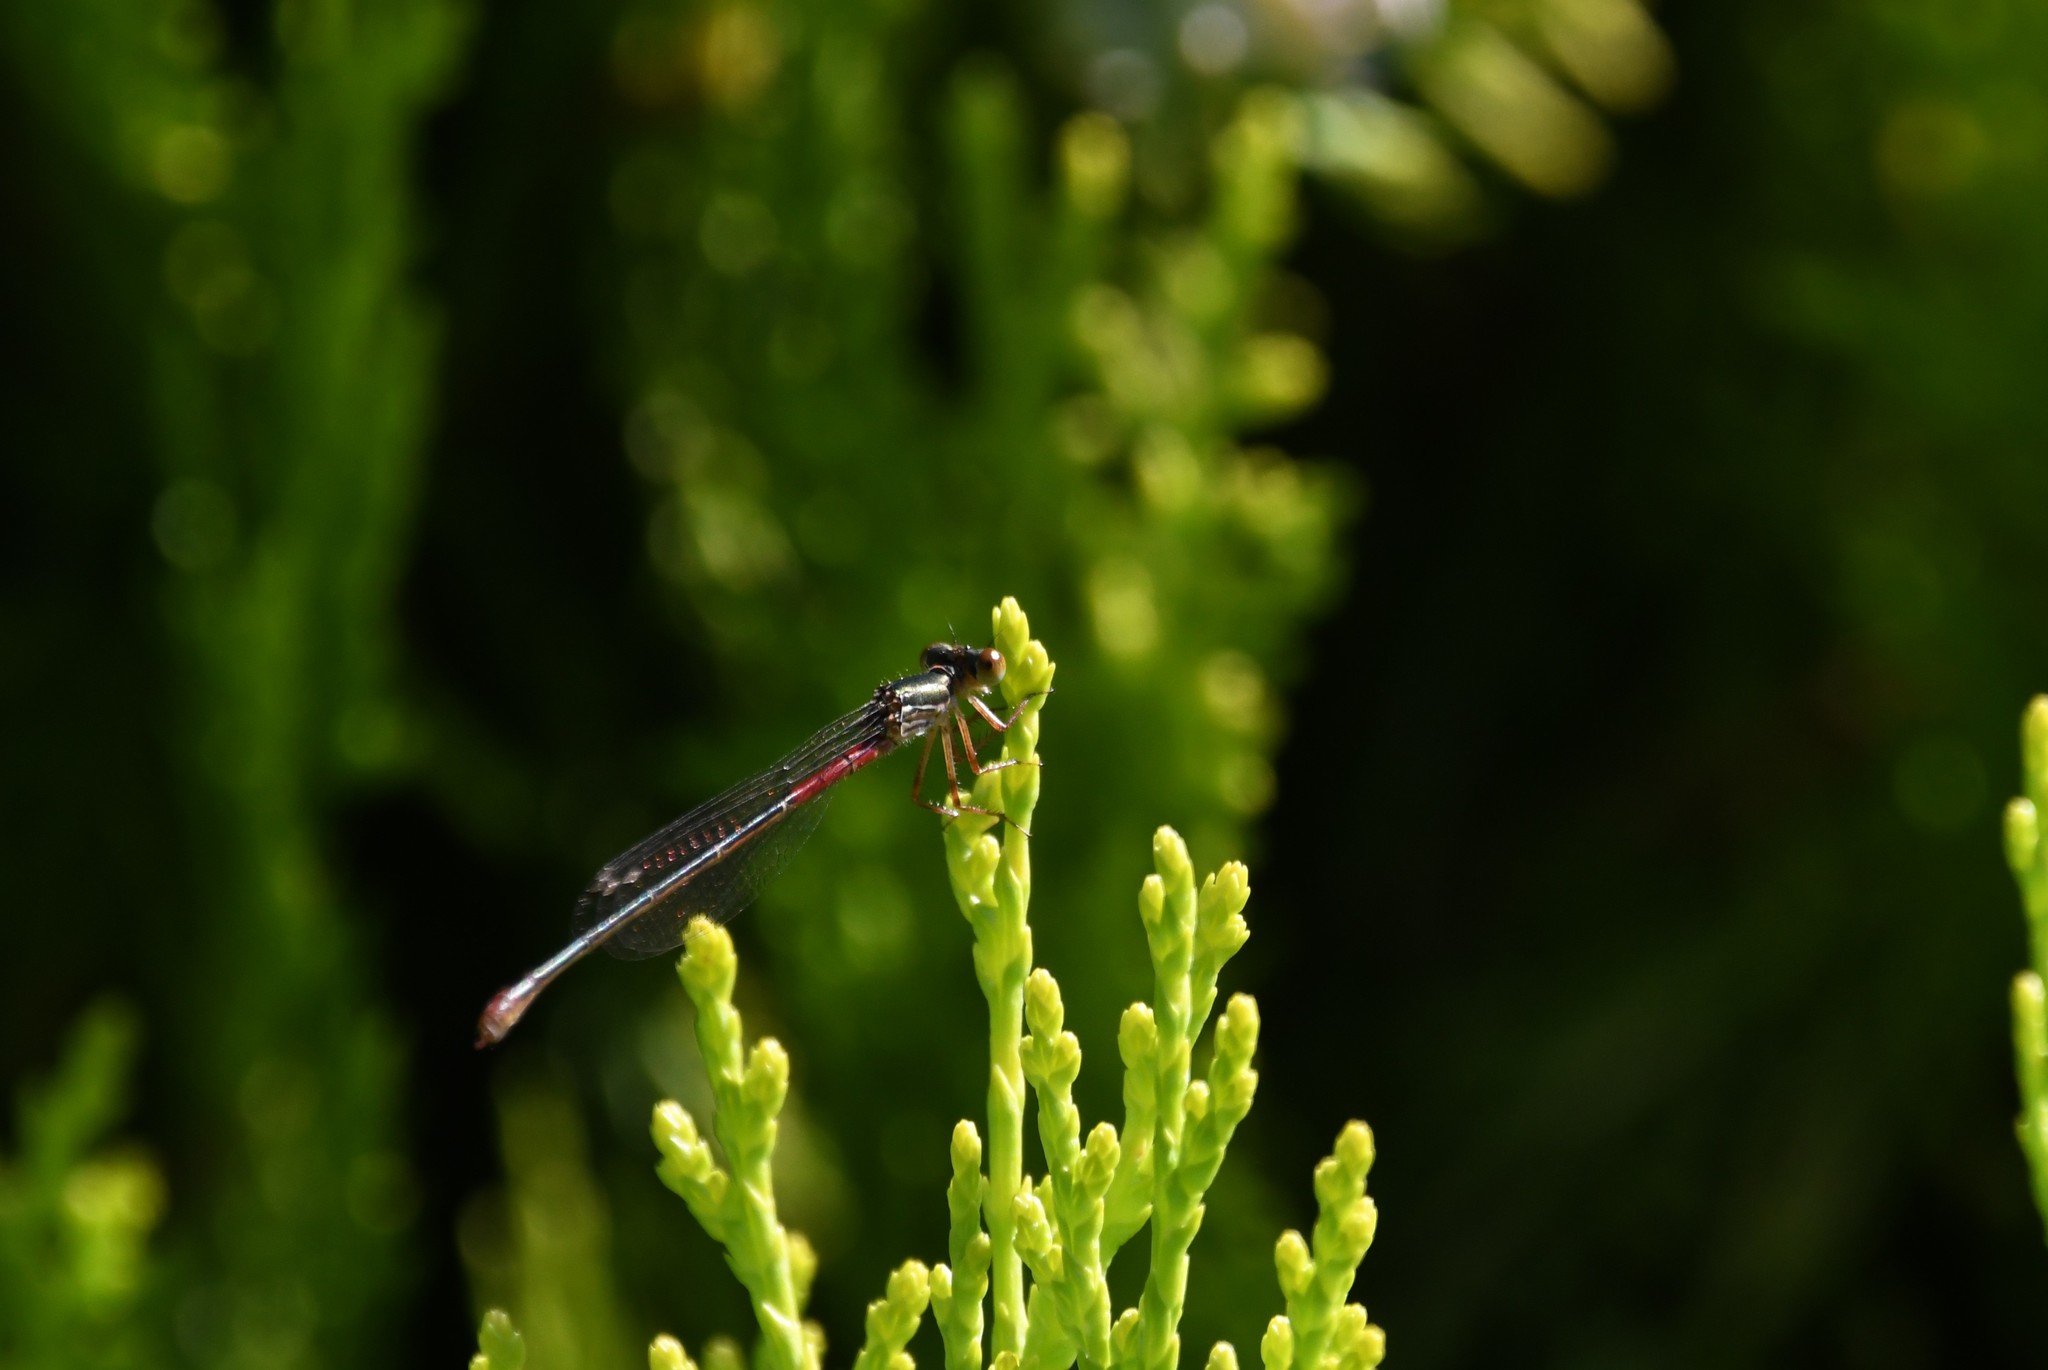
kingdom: Animalia
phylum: Arthropoda
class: Insecta
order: Odonata
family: Coenagrionidae
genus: Ceriagrion
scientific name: Ceriagrion tenellum
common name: Small red damselfly
